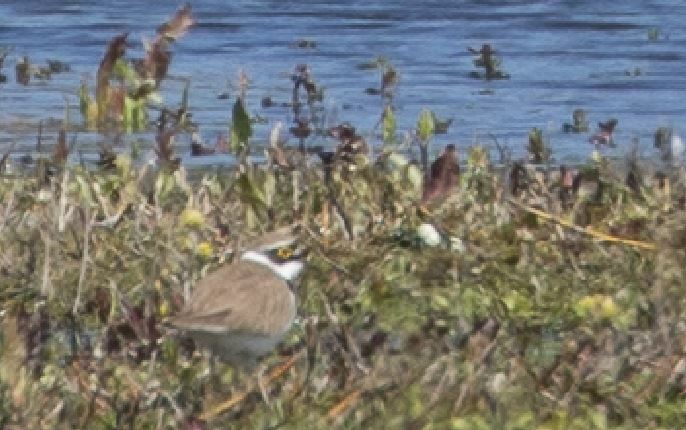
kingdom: Animalia
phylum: Chordata
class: Aves
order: Charadriiformes
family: Charadriidae
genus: Charadrius
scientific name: Charadrius dubius
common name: Little ringed plover
